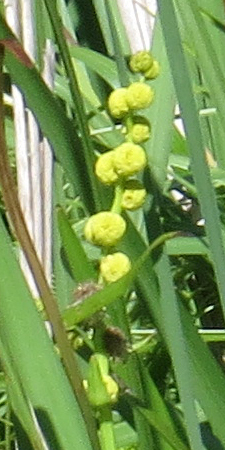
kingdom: Plantae
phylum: Tracheophyta
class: Liliopsida
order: Poales
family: Typhaceae
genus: Sparganium
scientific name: Sparganium eurycarpum
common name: Broad-fruited burreed
